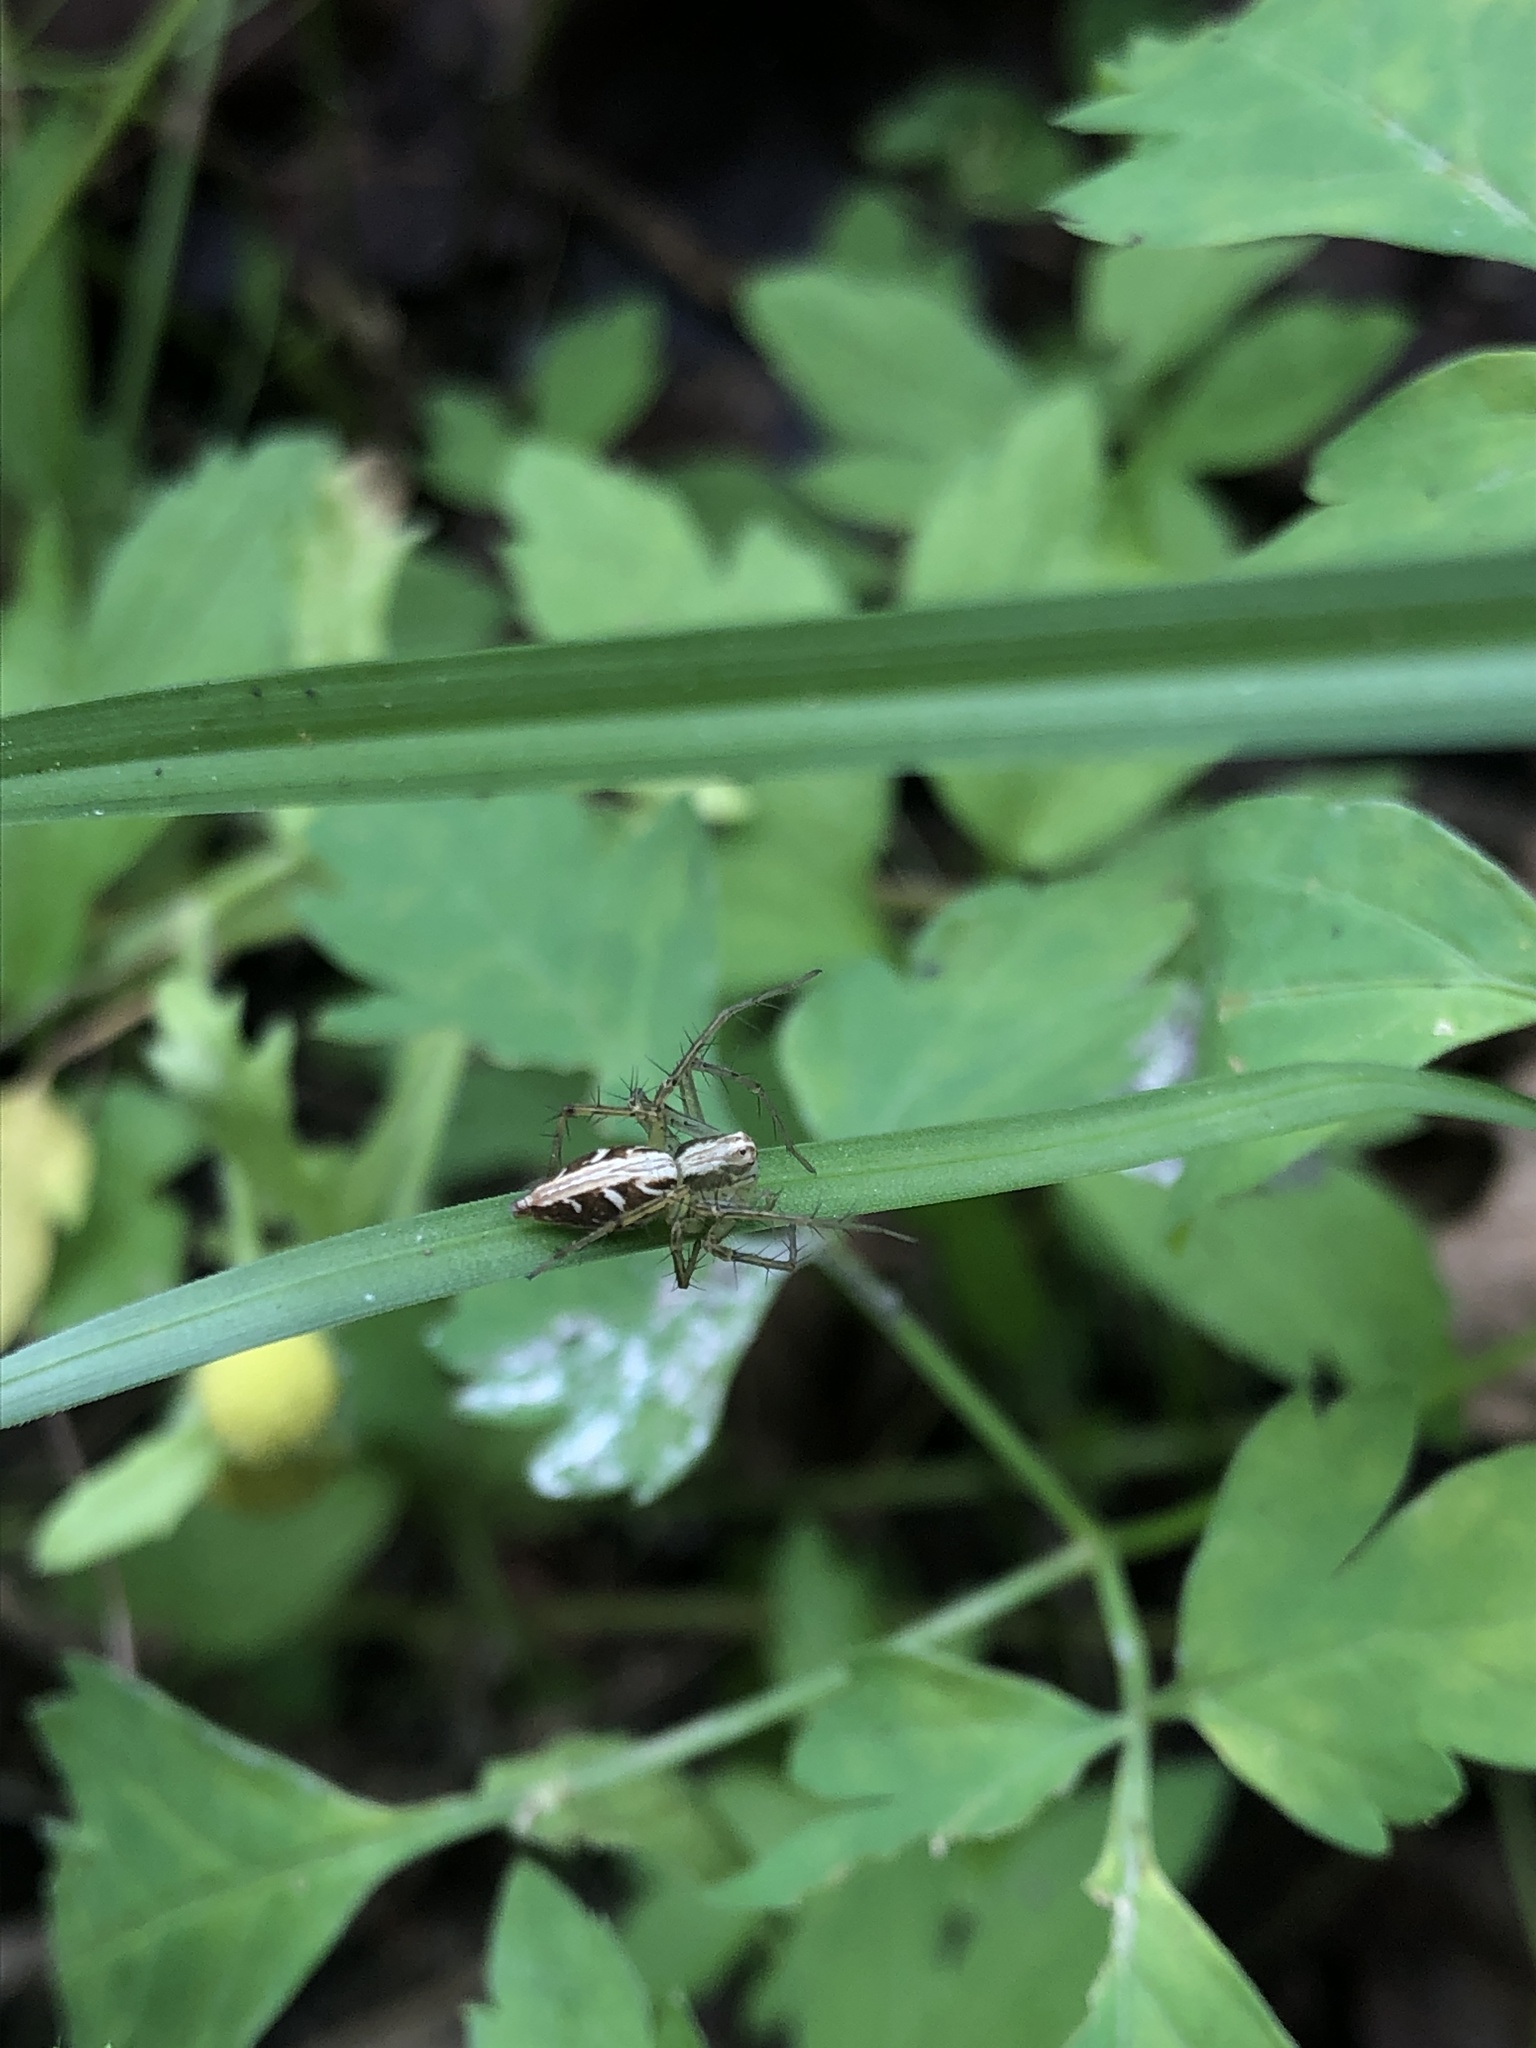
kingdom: Animalia
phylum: Arthropoda
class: Arachnida
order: Araneae
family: Oxyopidae
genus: Oxyopes
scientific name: Oxyopes sertatus
